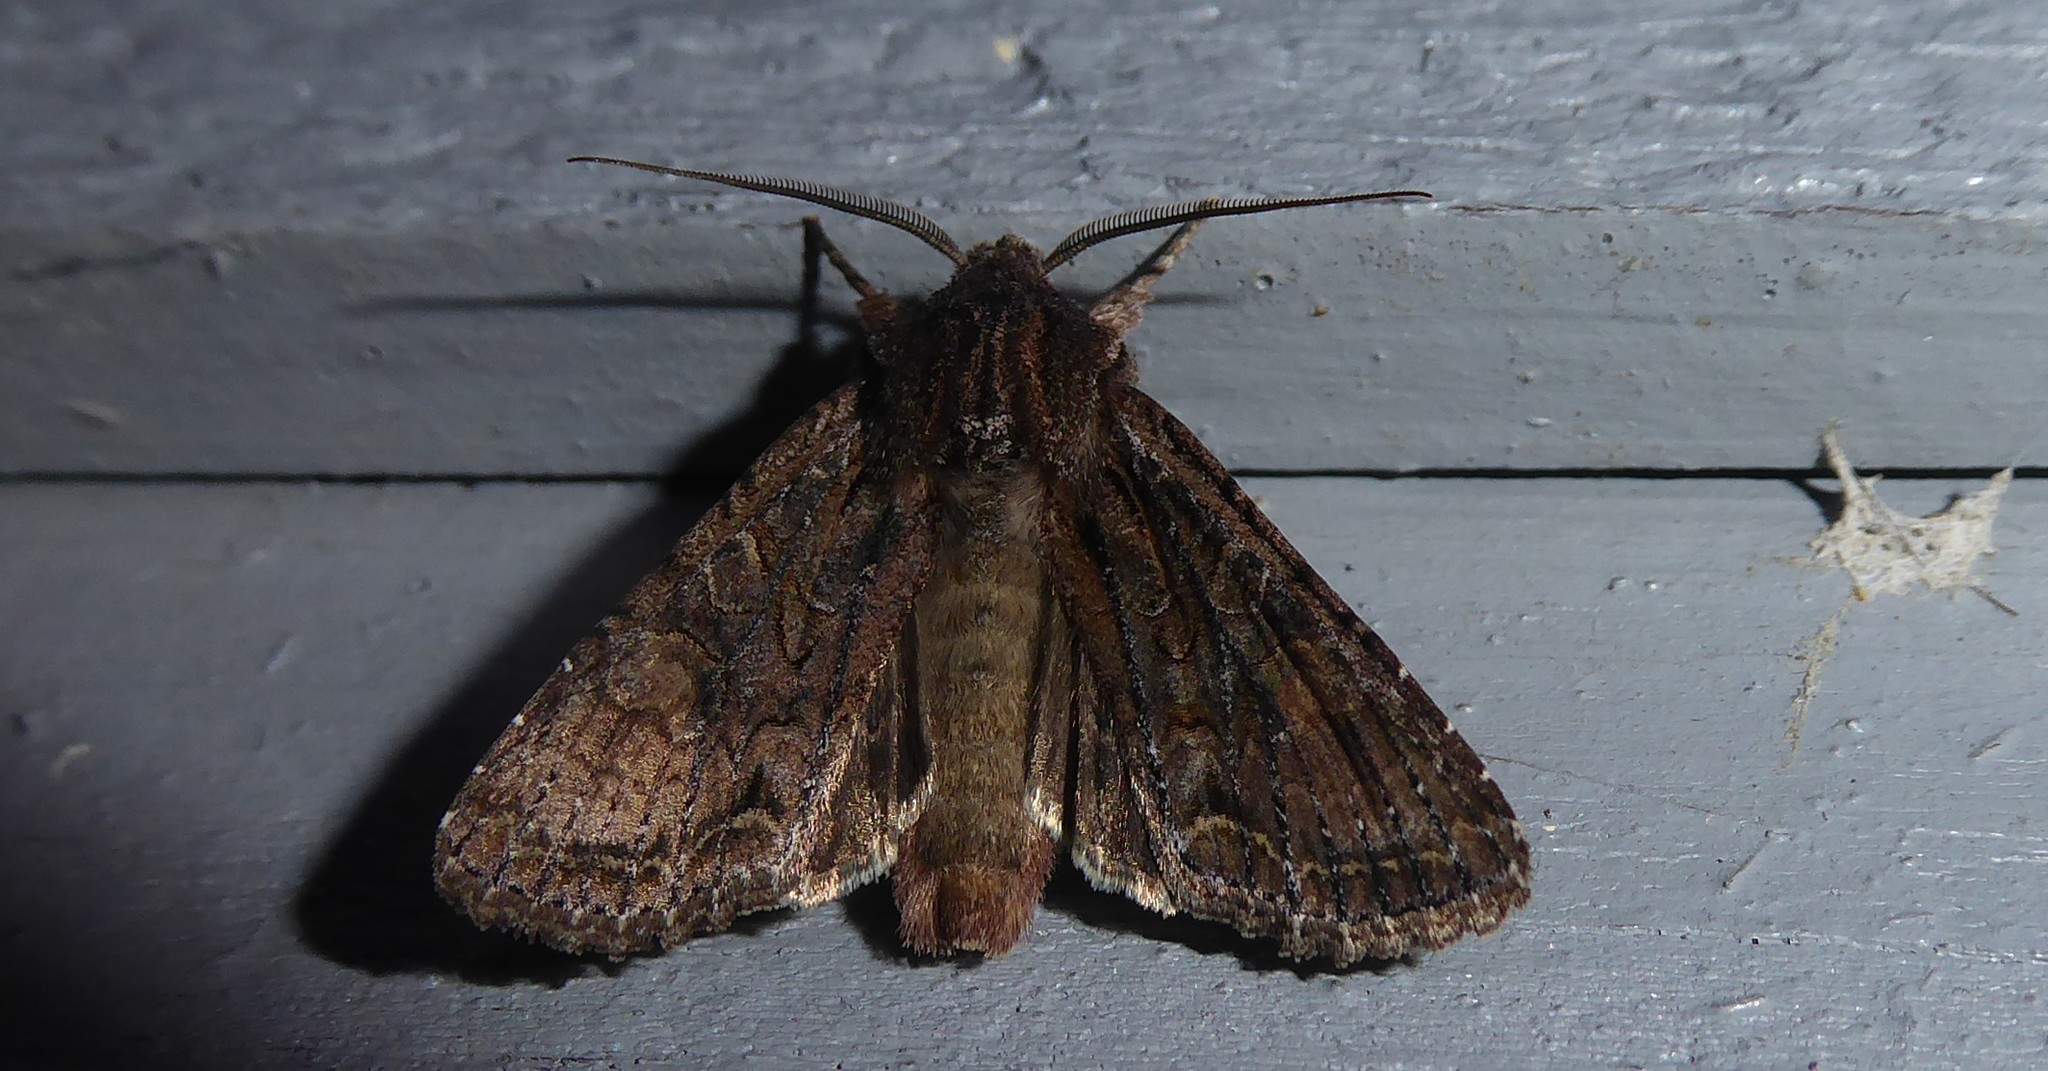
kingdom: Animalia
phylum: Arthropoda
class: Insecta
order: Lepidoptera
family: Noctuidae
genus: Ichneutica
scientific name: Ichneutica mutans
